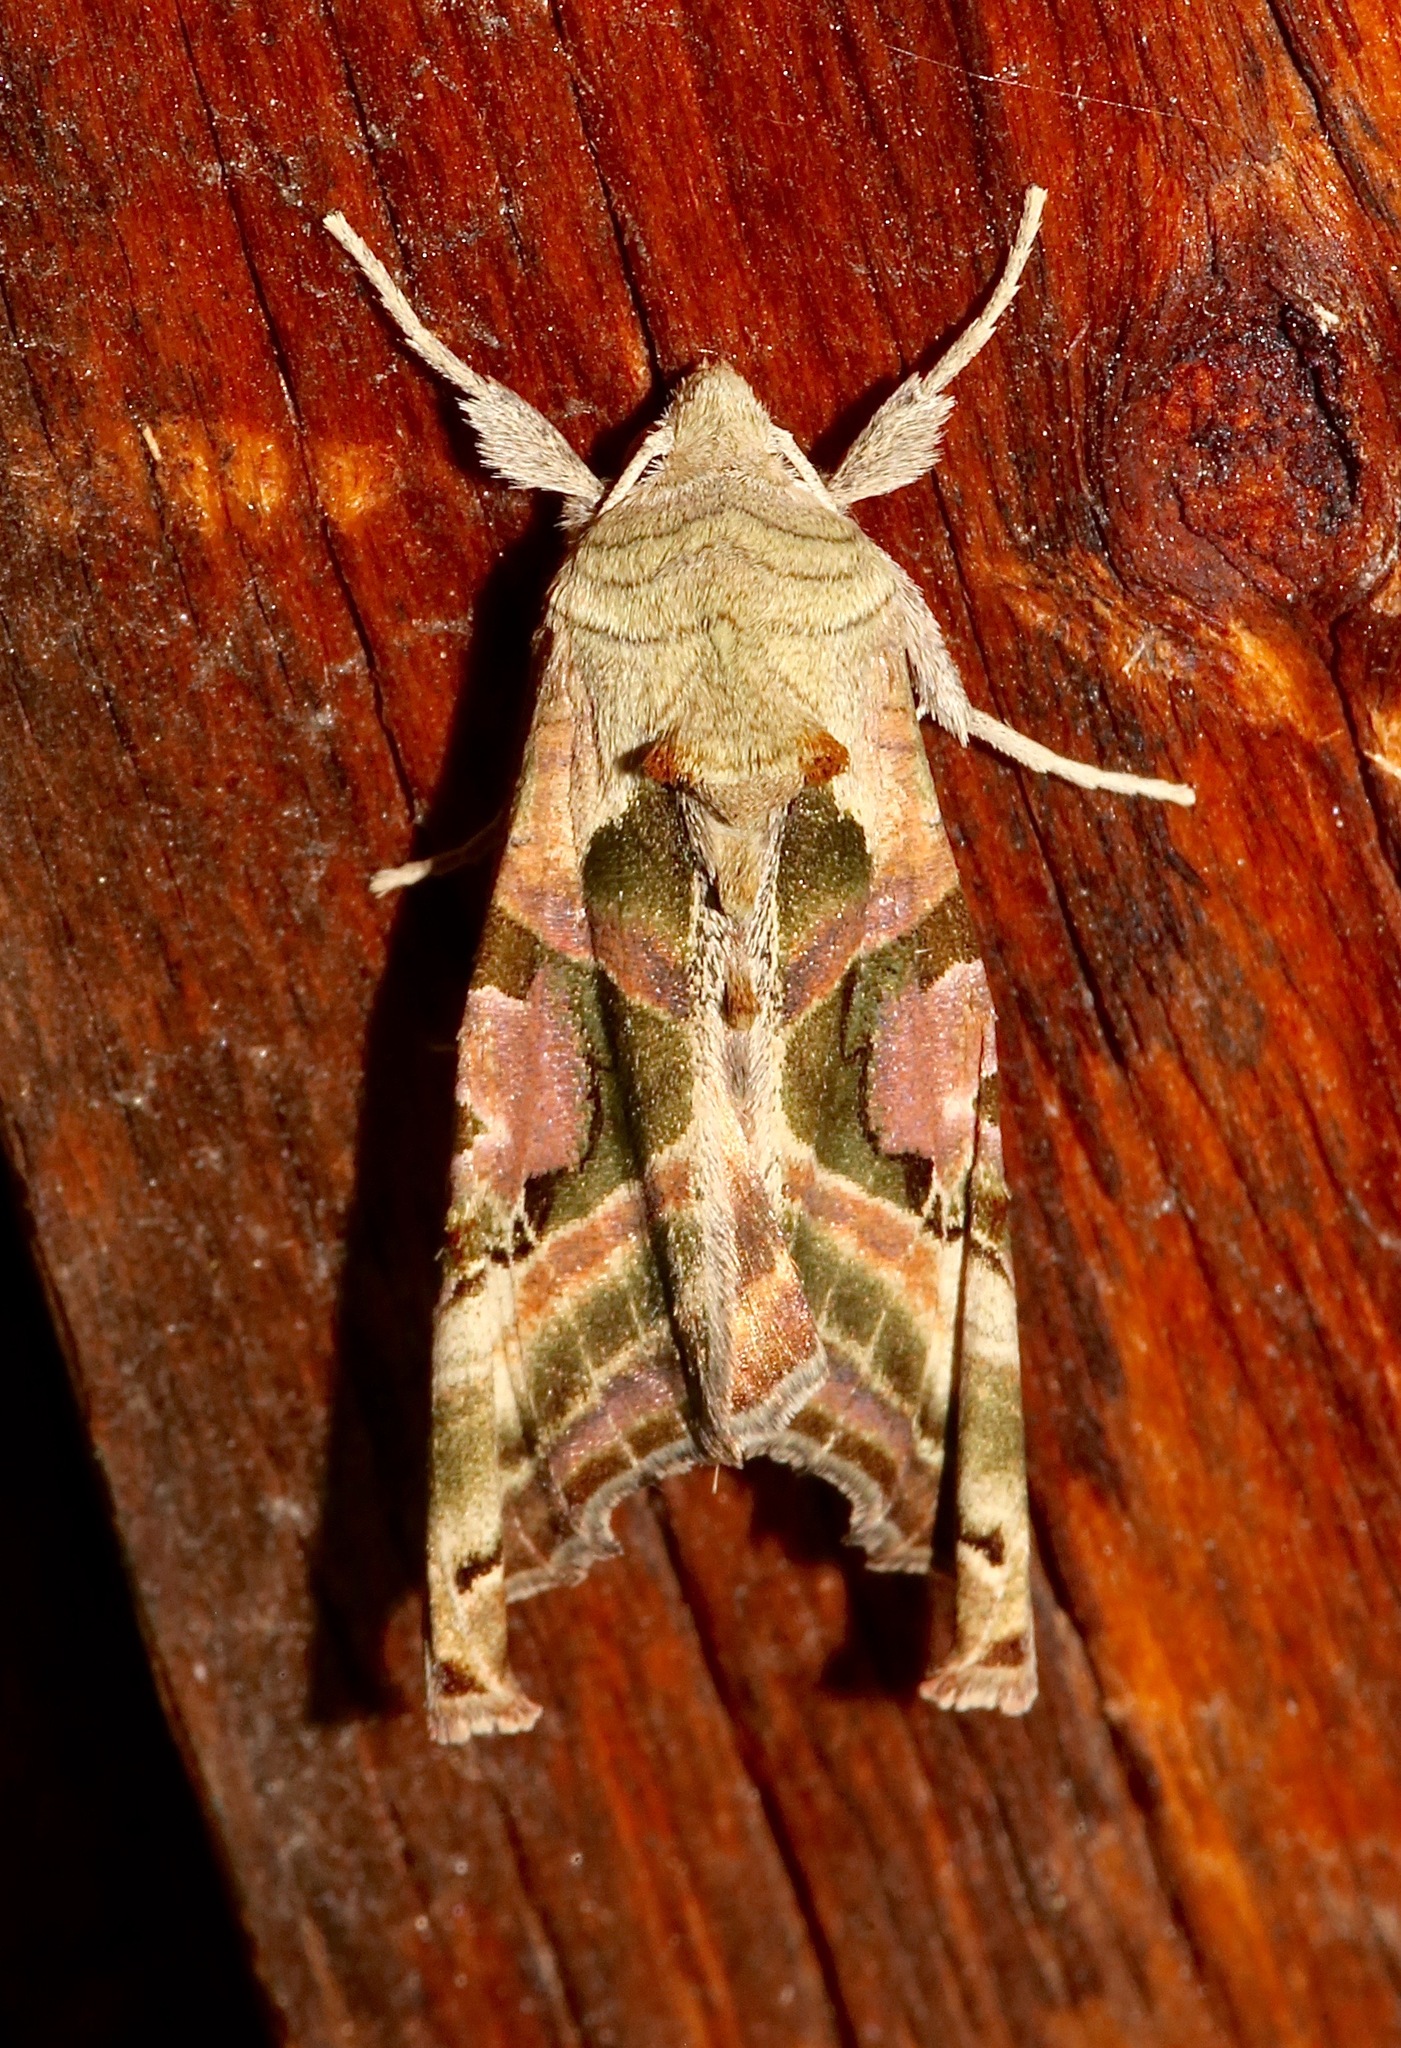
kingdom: Animalia
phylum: Arthropoda
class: Insecta
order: Lepidoptera
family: Noctuidae
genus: Phlogophora
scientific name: Phlogophora iris
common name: Olive angle shades
